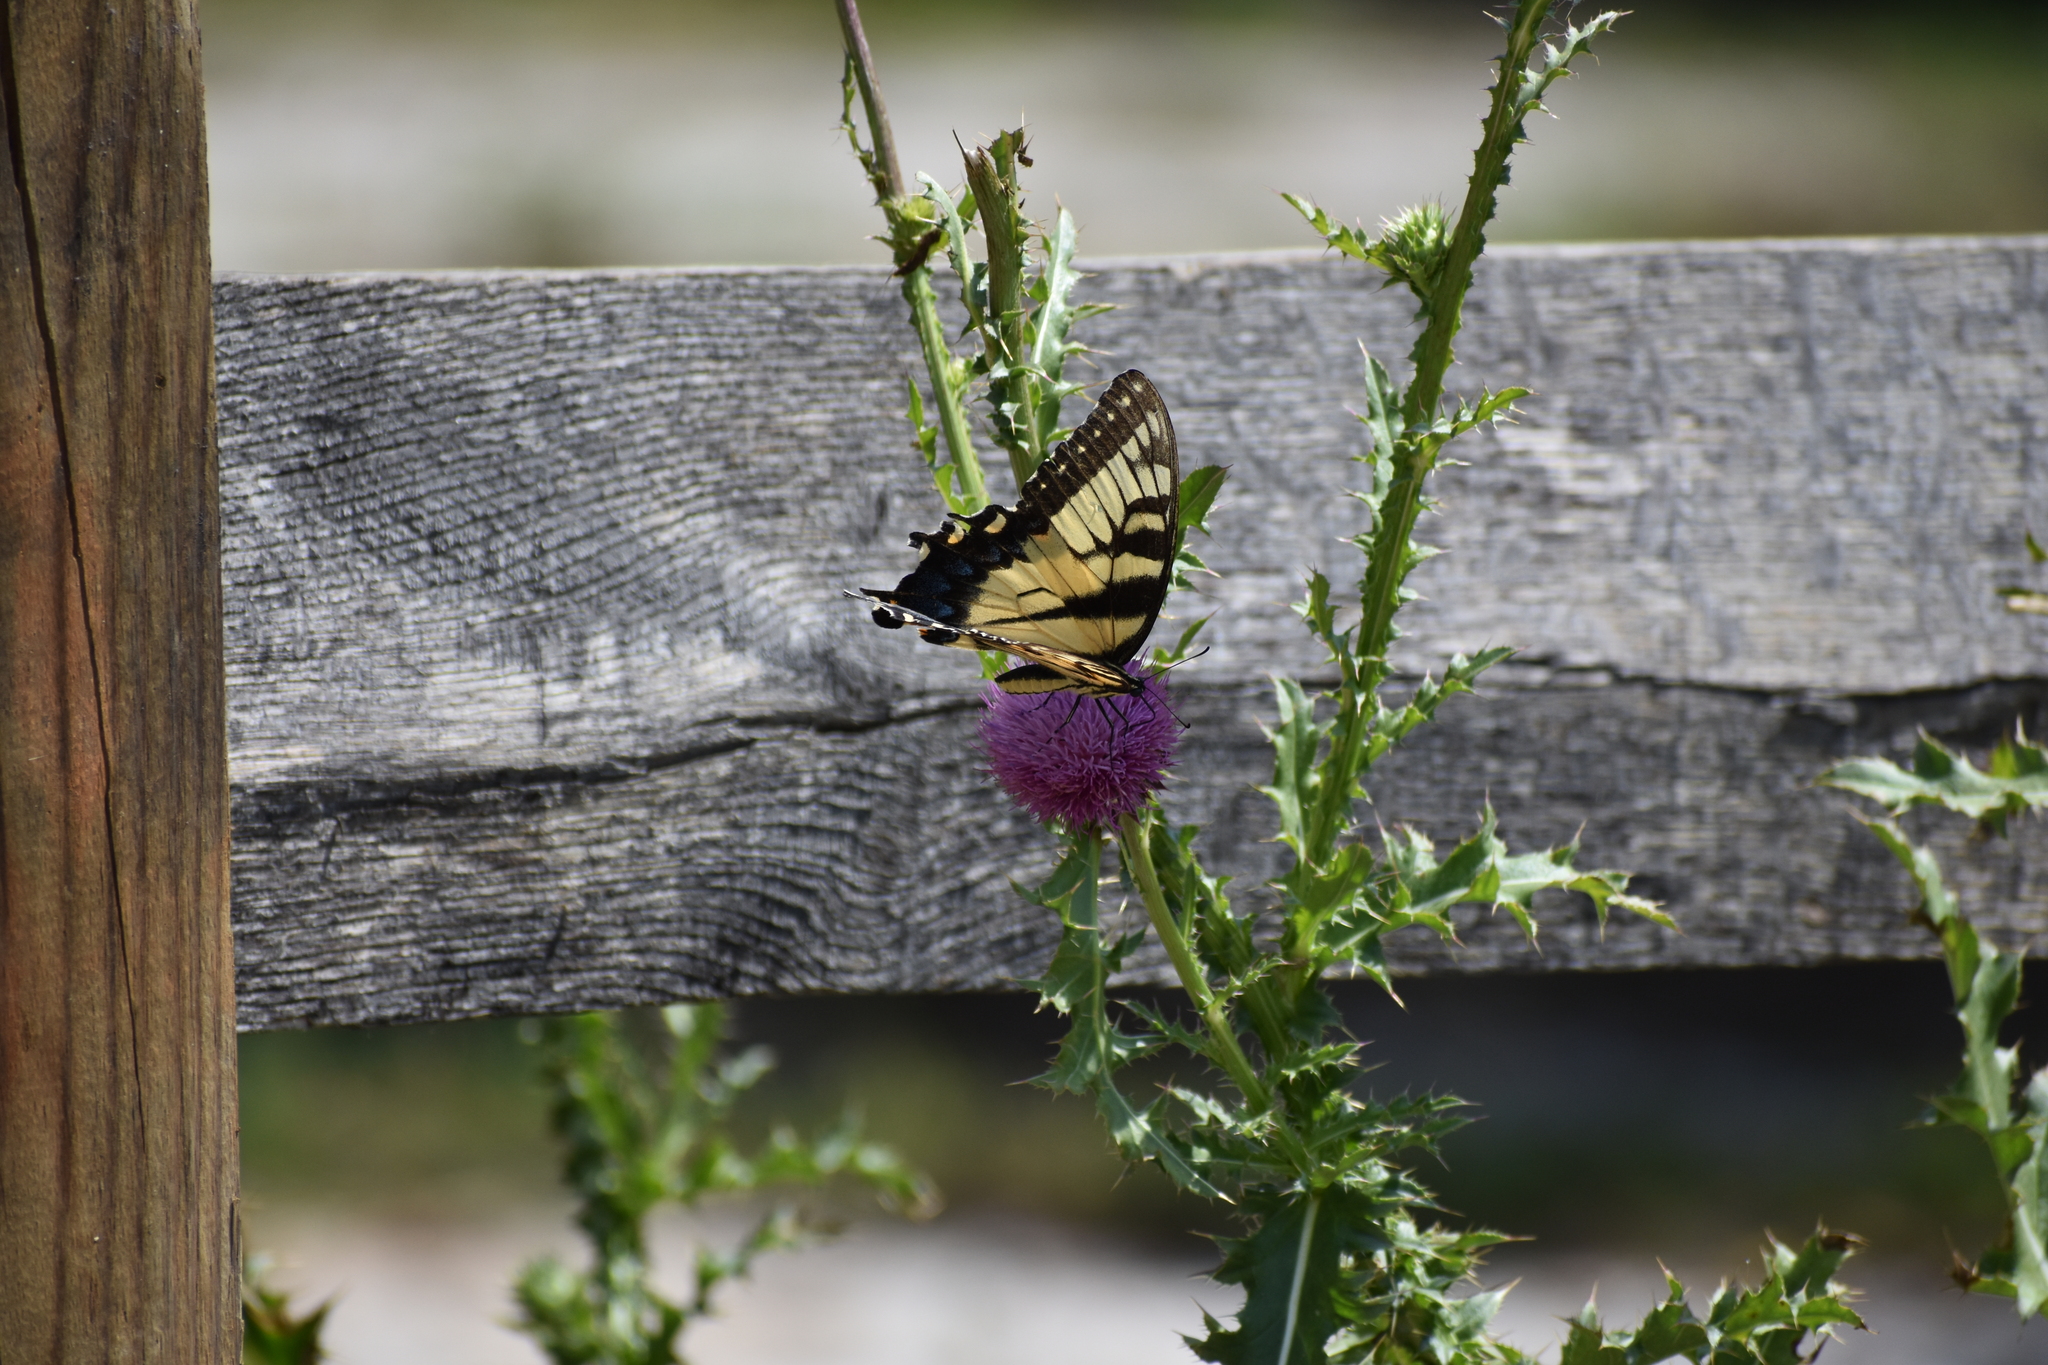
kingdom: Animalia
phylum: Arthropoda
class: Insecta
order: Lepidoptera
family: Papilionidae
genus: Papilio
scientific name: Papilio glaucus
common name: Tiger swallowtail
